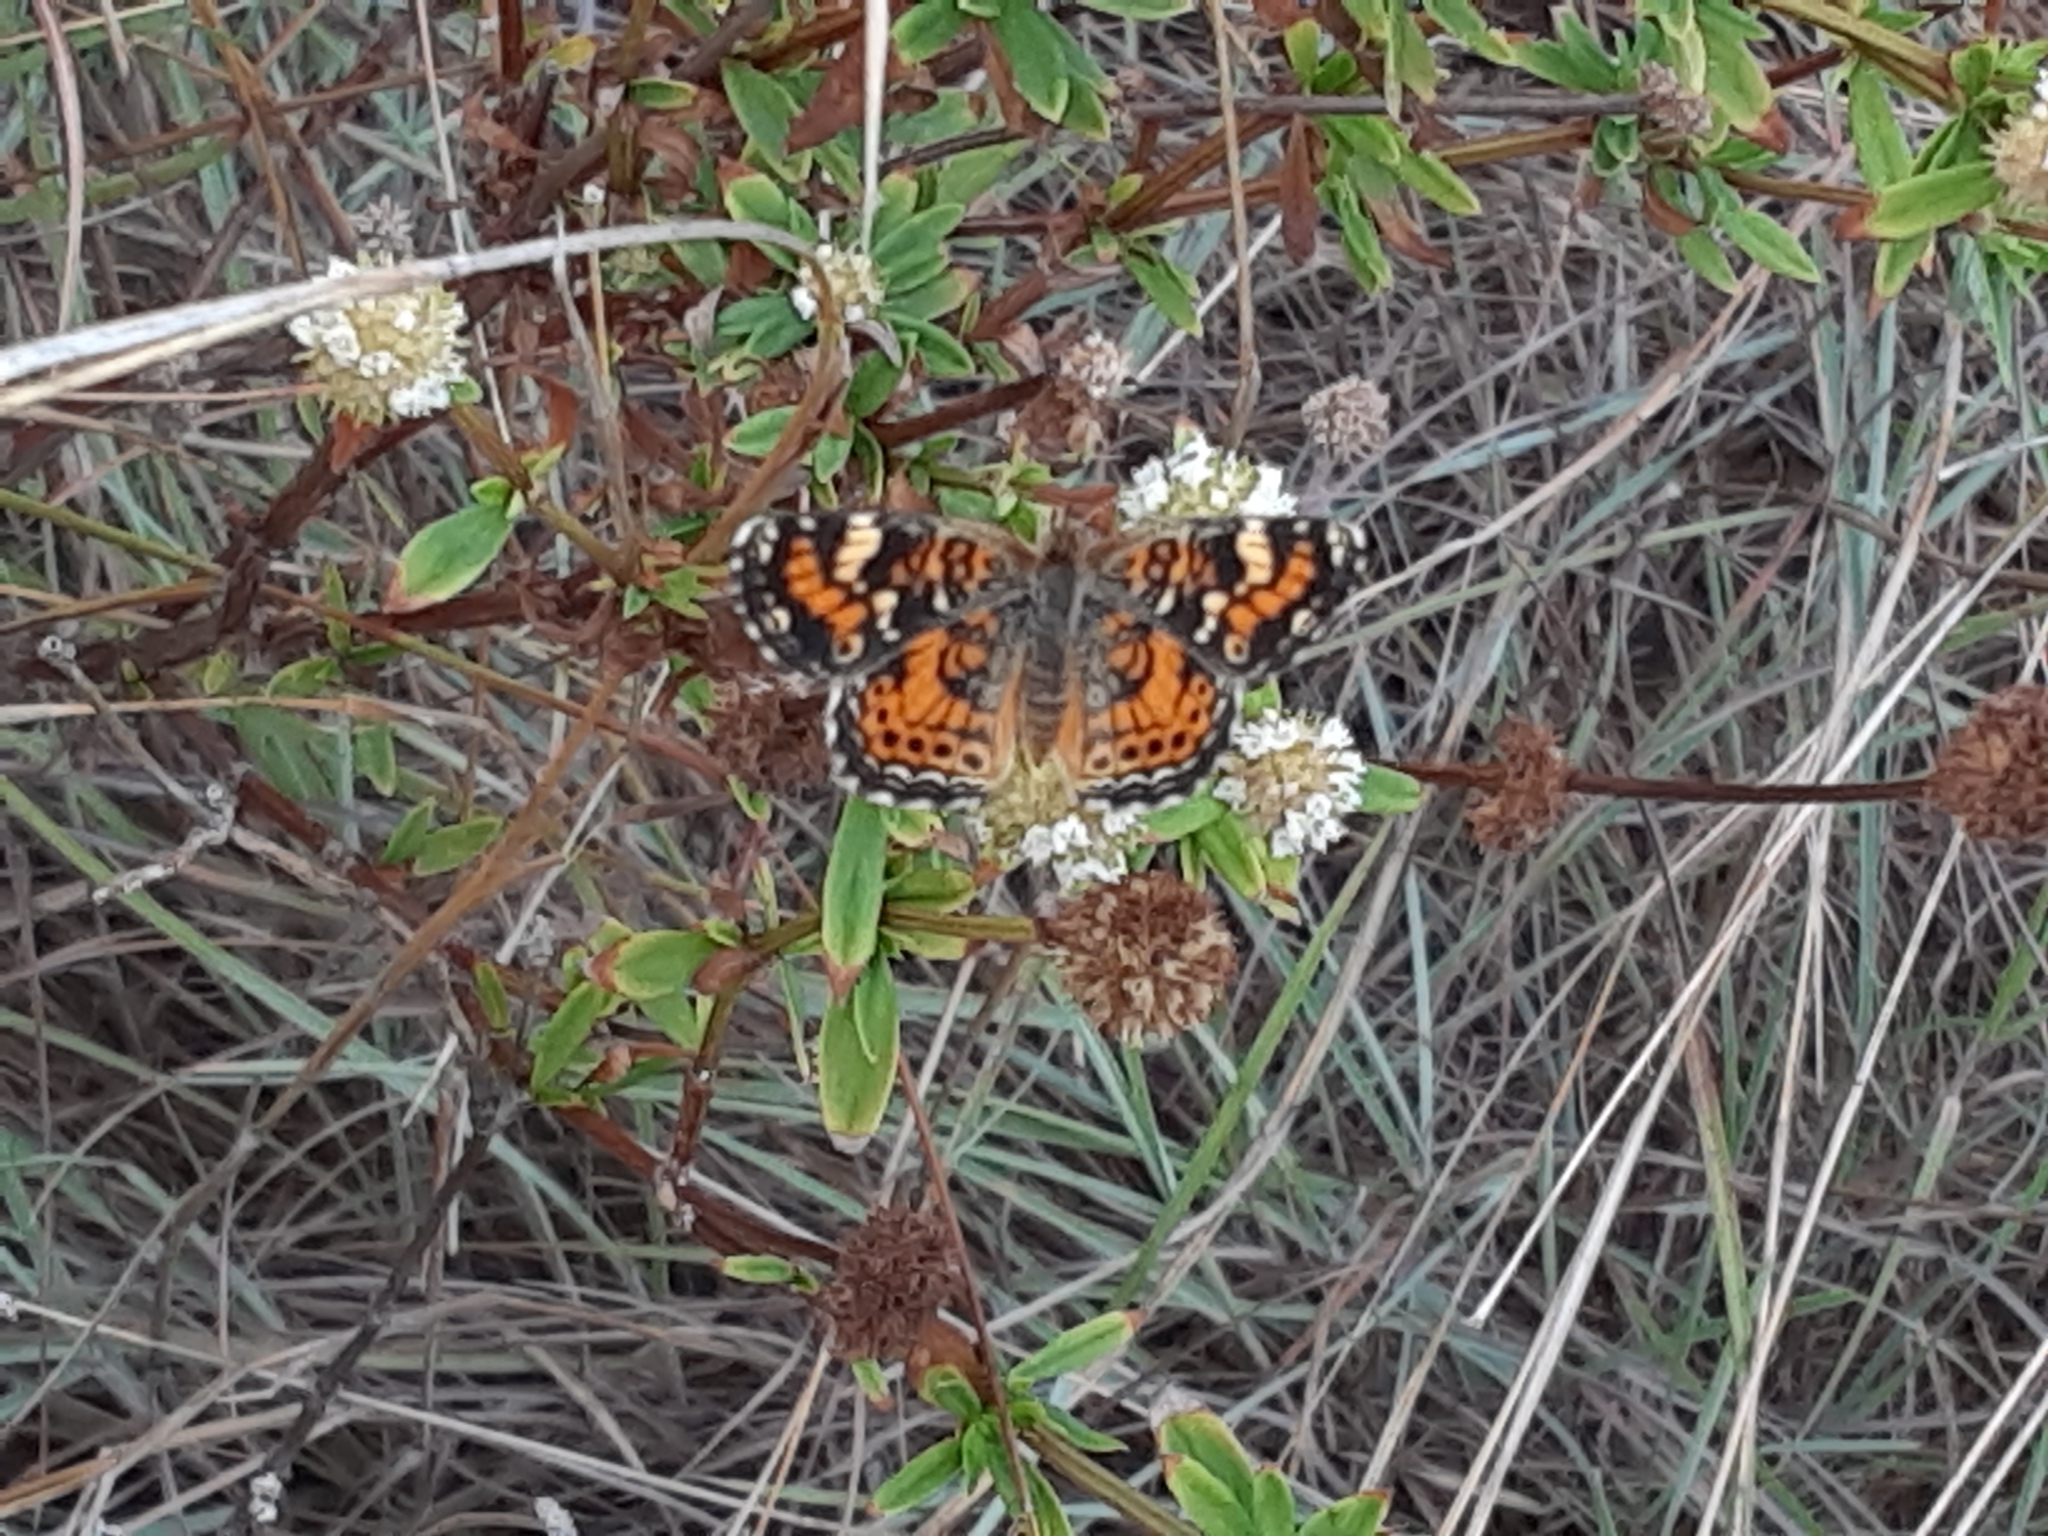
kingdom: Animalia
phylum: Arthropoda
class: Insecta
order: Lepidoptera
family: Nymphalidae
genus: Phyciodes
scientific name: Phyciodes phaon
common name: Phaon crescent
